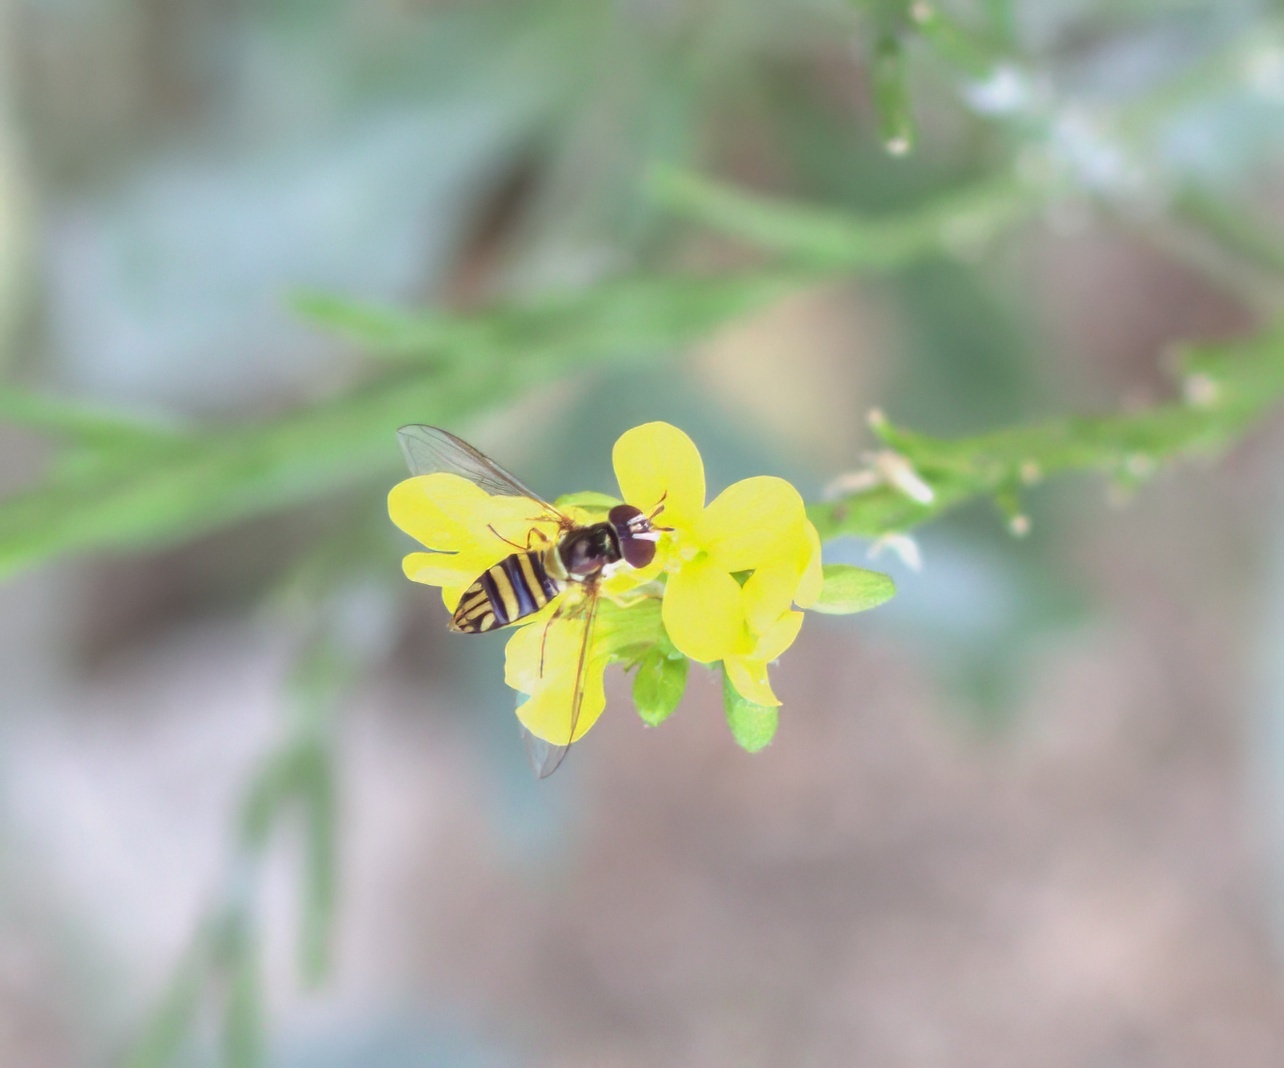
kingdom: Animalia
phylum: Arthropoda
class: Insecta
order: Diptera
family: Syrphidae
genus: Allograpta
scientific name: Allograpta obliqua
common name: Common oblique syrphid
